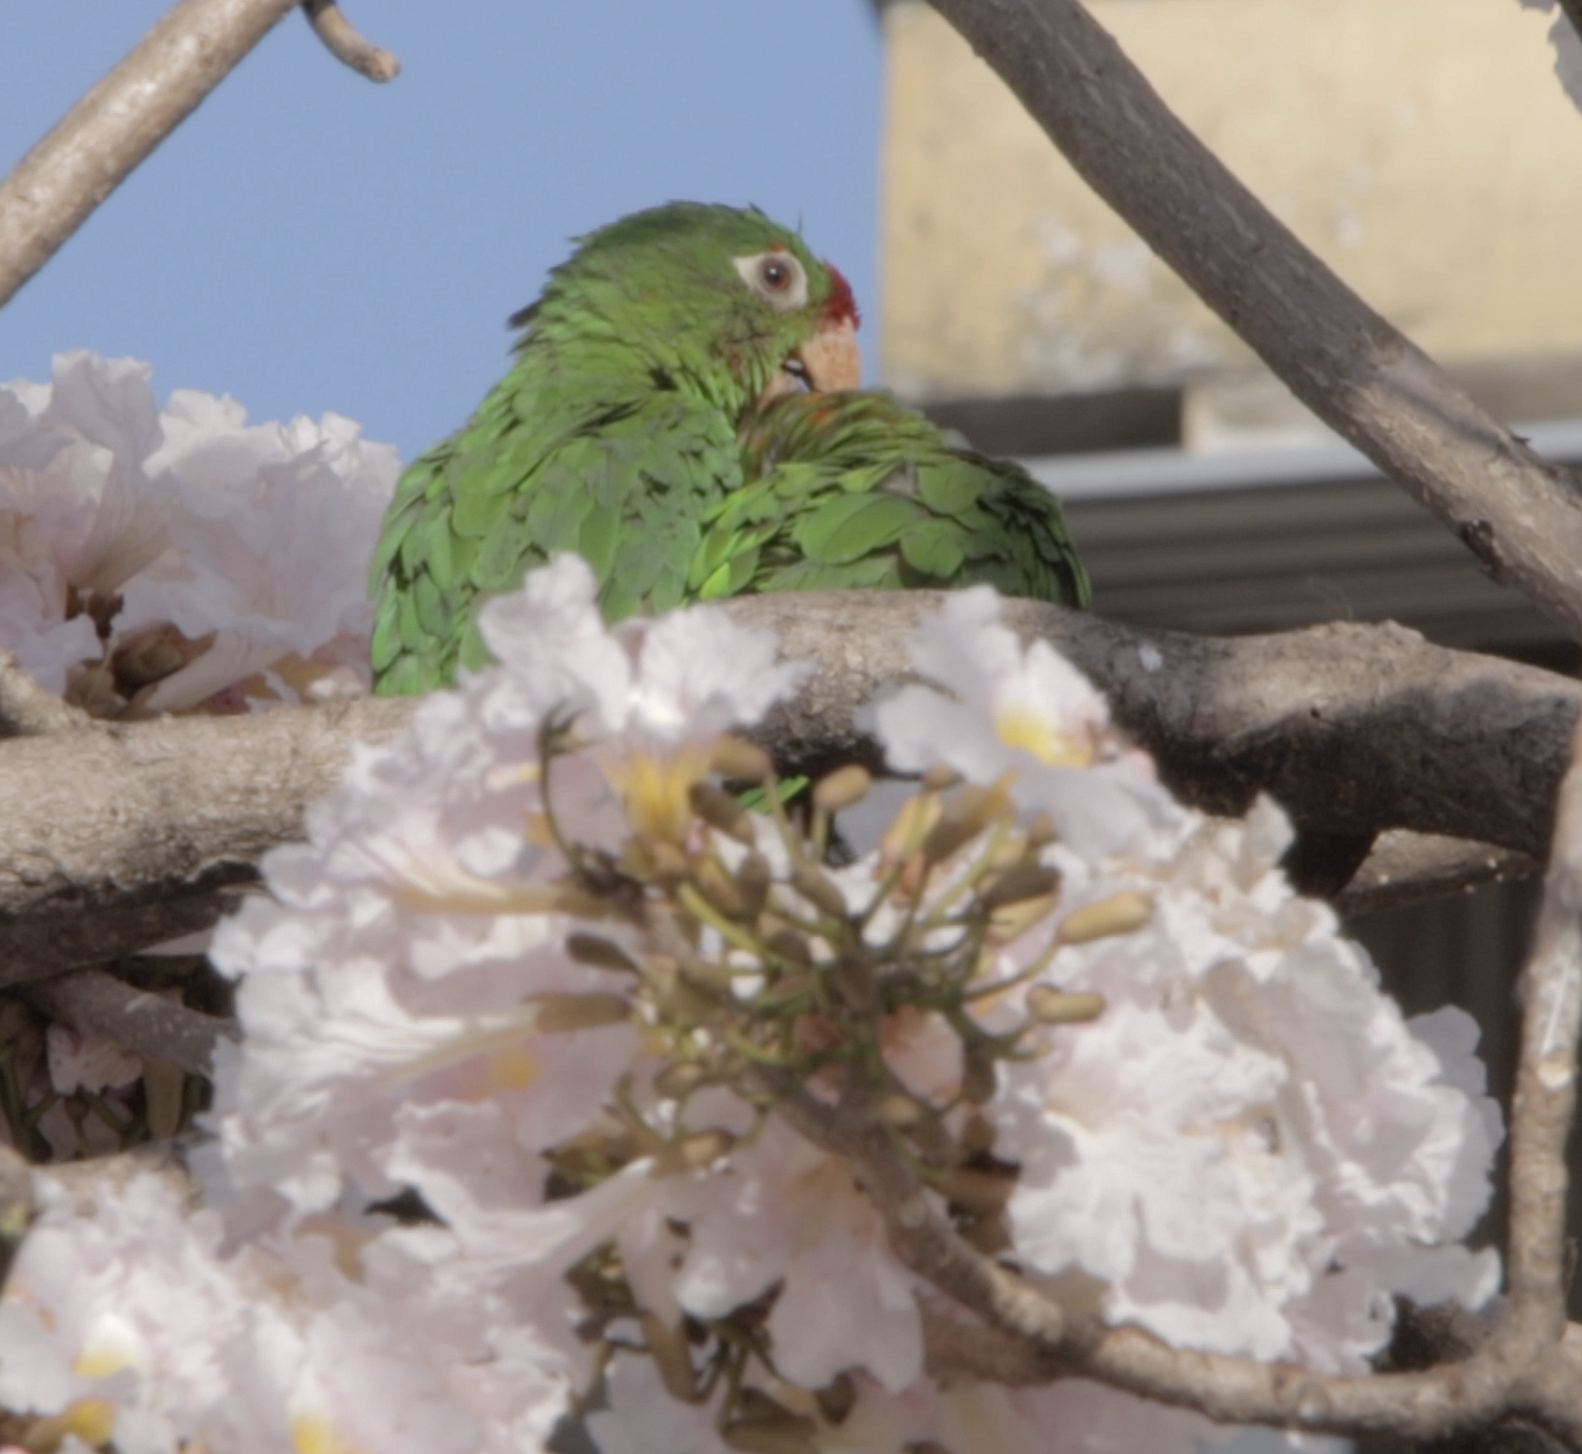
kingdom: Animalia
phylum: Chordata
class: Aves
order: Psittaciformes
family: Psittacidae
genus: Aratinga
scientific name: Aratinga finschi
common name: Crimson-fronted parakeet
